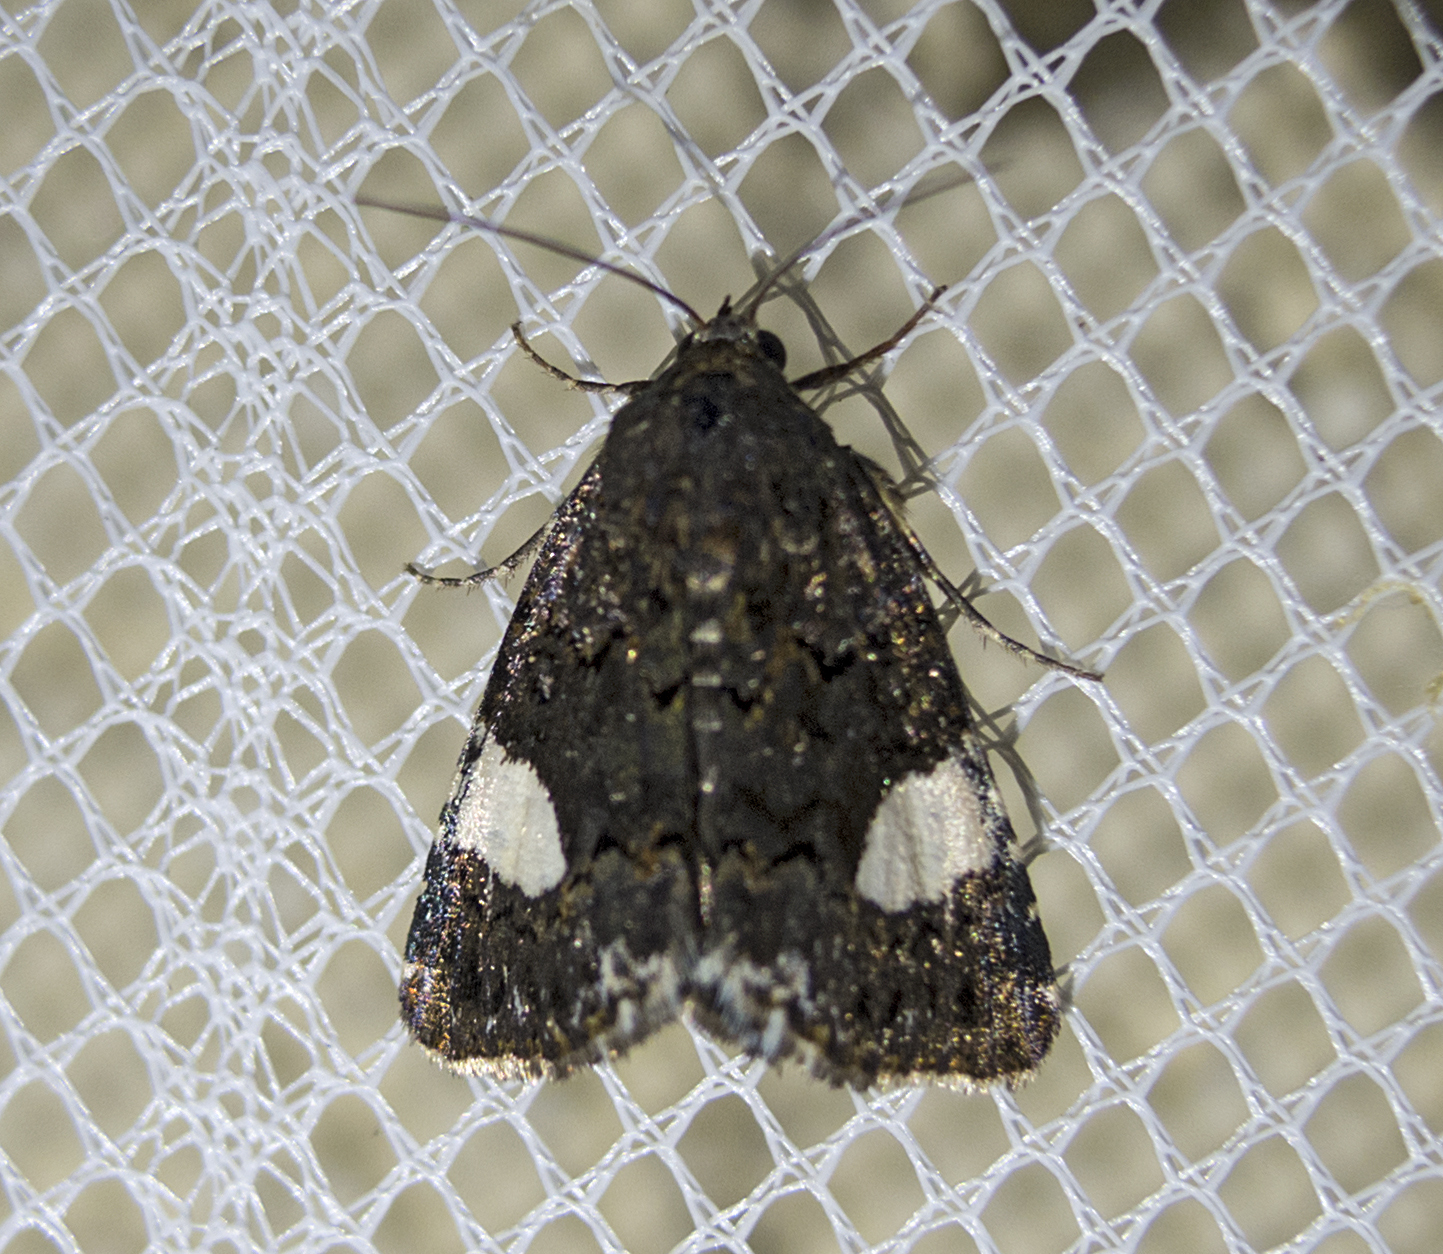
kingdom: Animalia
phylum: Arthropoda
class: Insecta
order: Lepidoptera
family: Erebidae
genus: Tyta
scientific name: Tyta luctuosa
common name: Four-spotted
